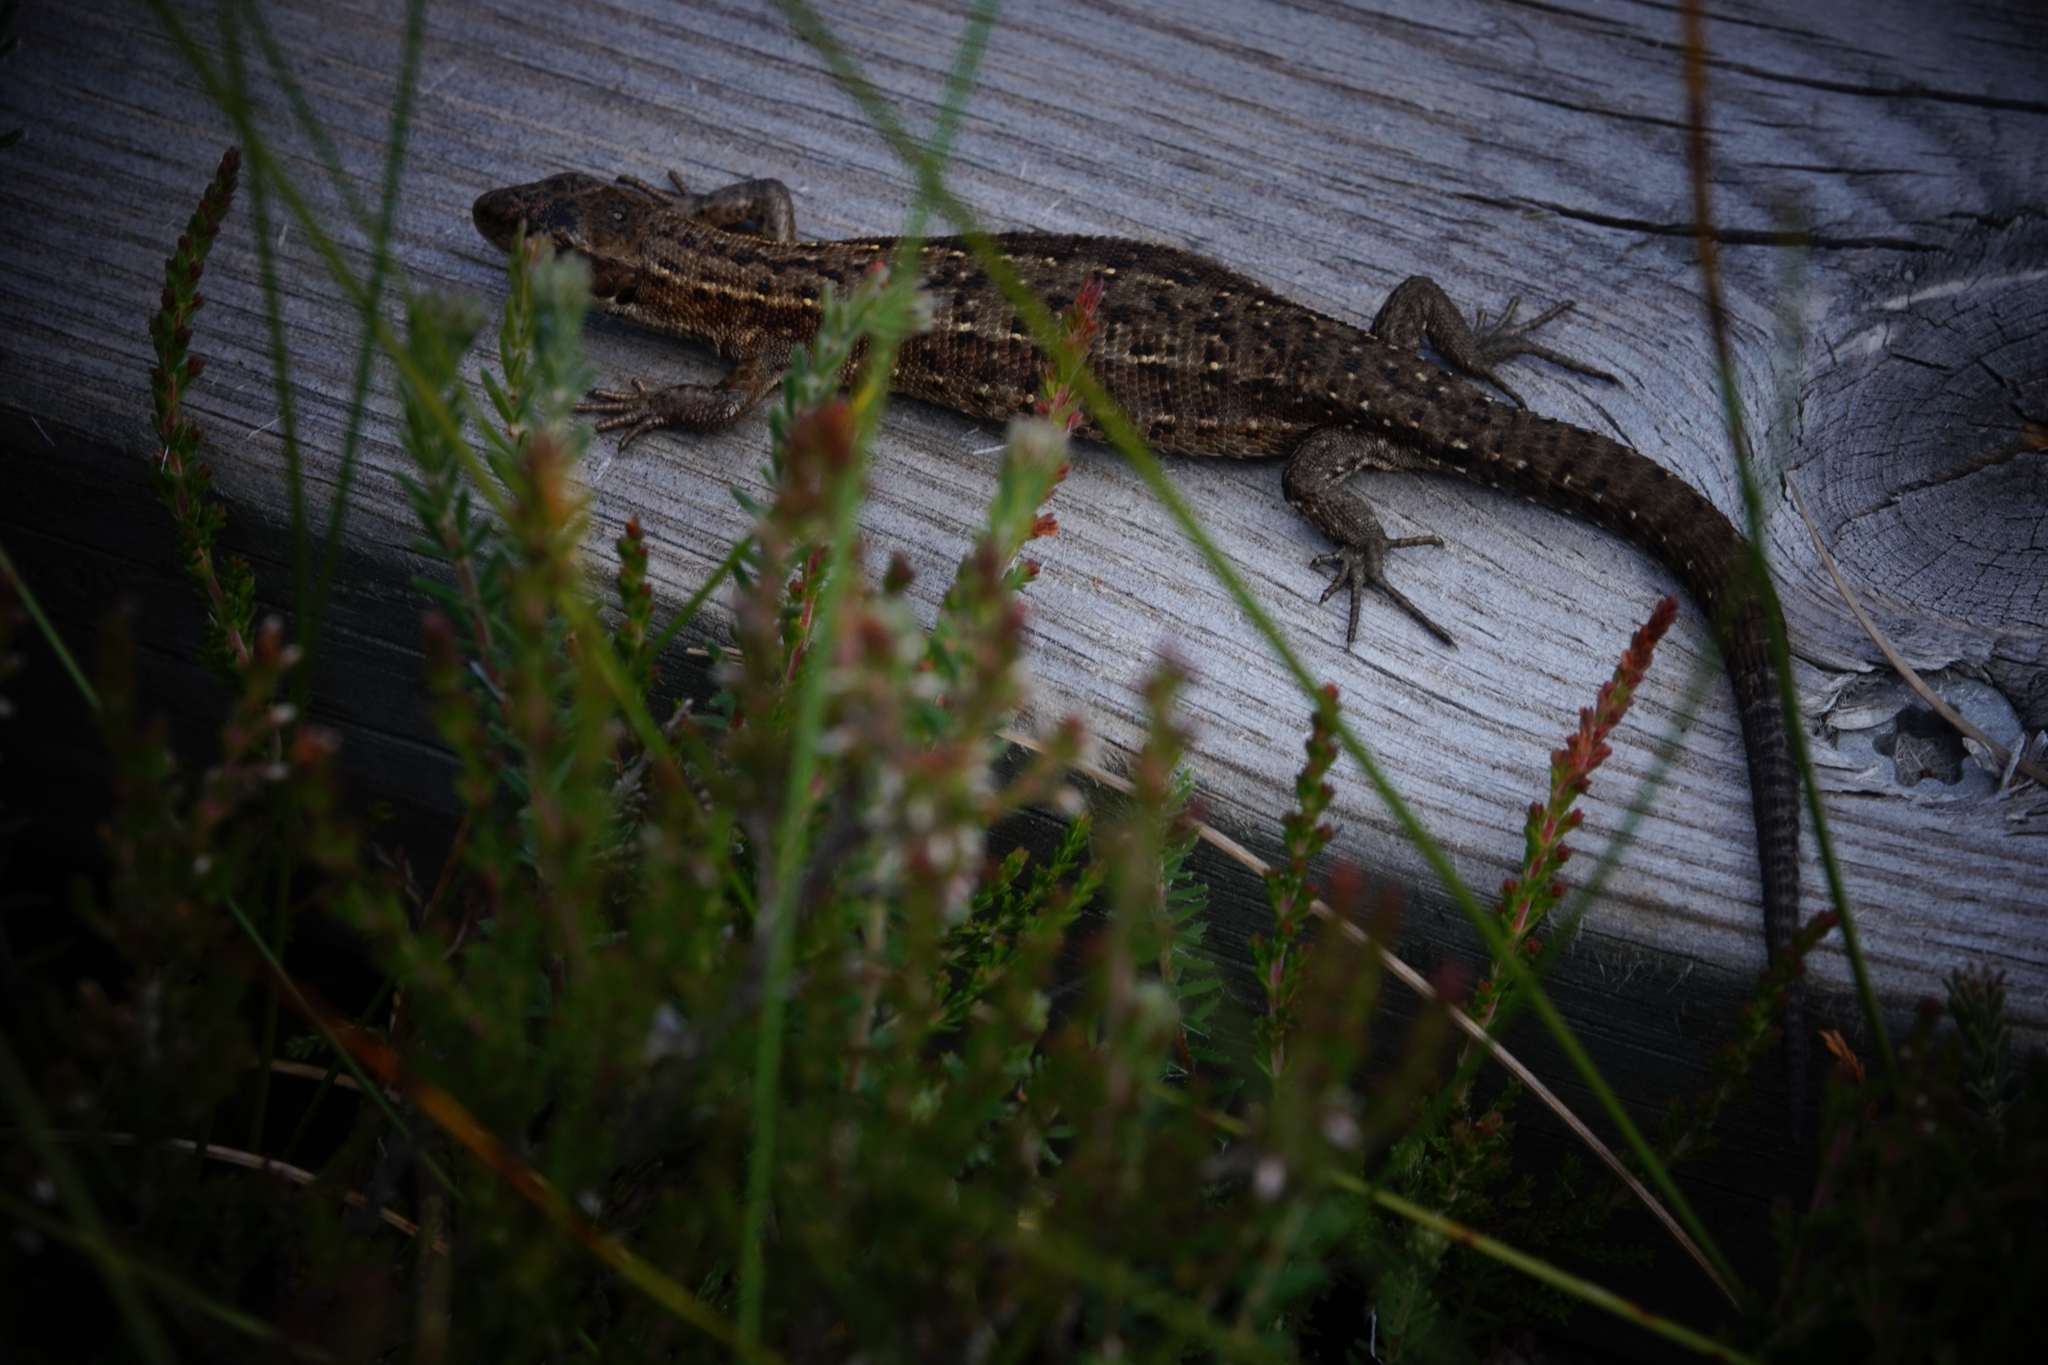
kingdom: Animalia
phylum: Chordata
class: Squamata
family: Lacertidae
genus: Zootoca
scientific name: Zootoca vivipara
